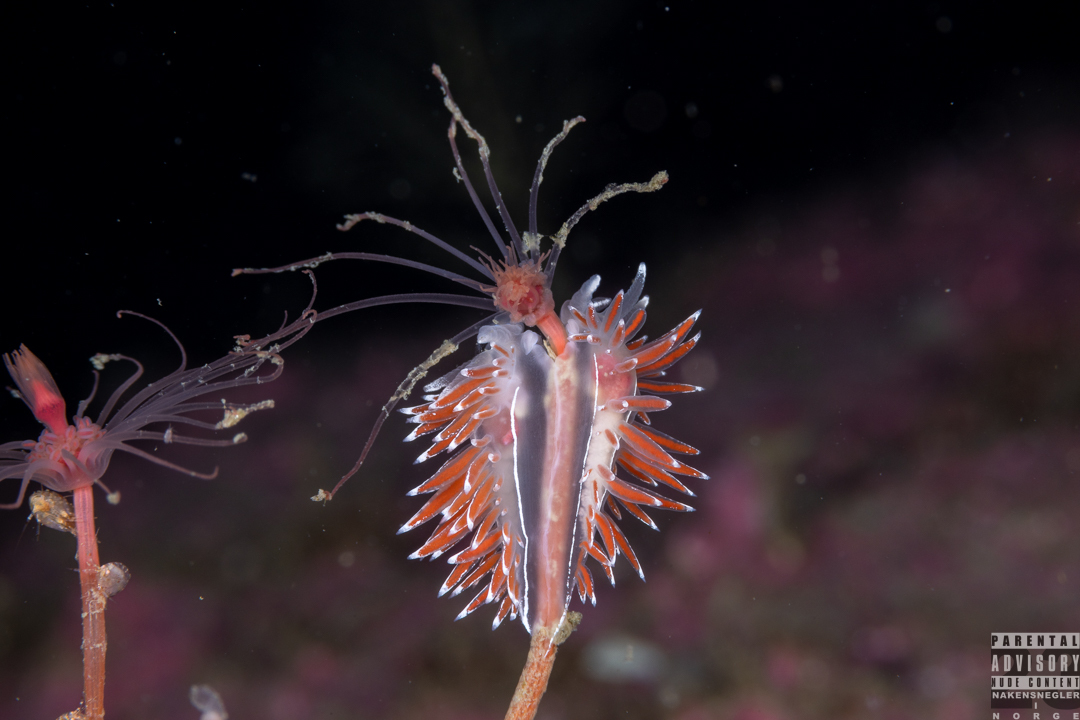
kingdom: Animalia
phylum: Mollusca
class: Gastropoda
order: Nudibranchia
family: Coryphellidae
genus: Coryphella
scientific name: Coryphella lineata
